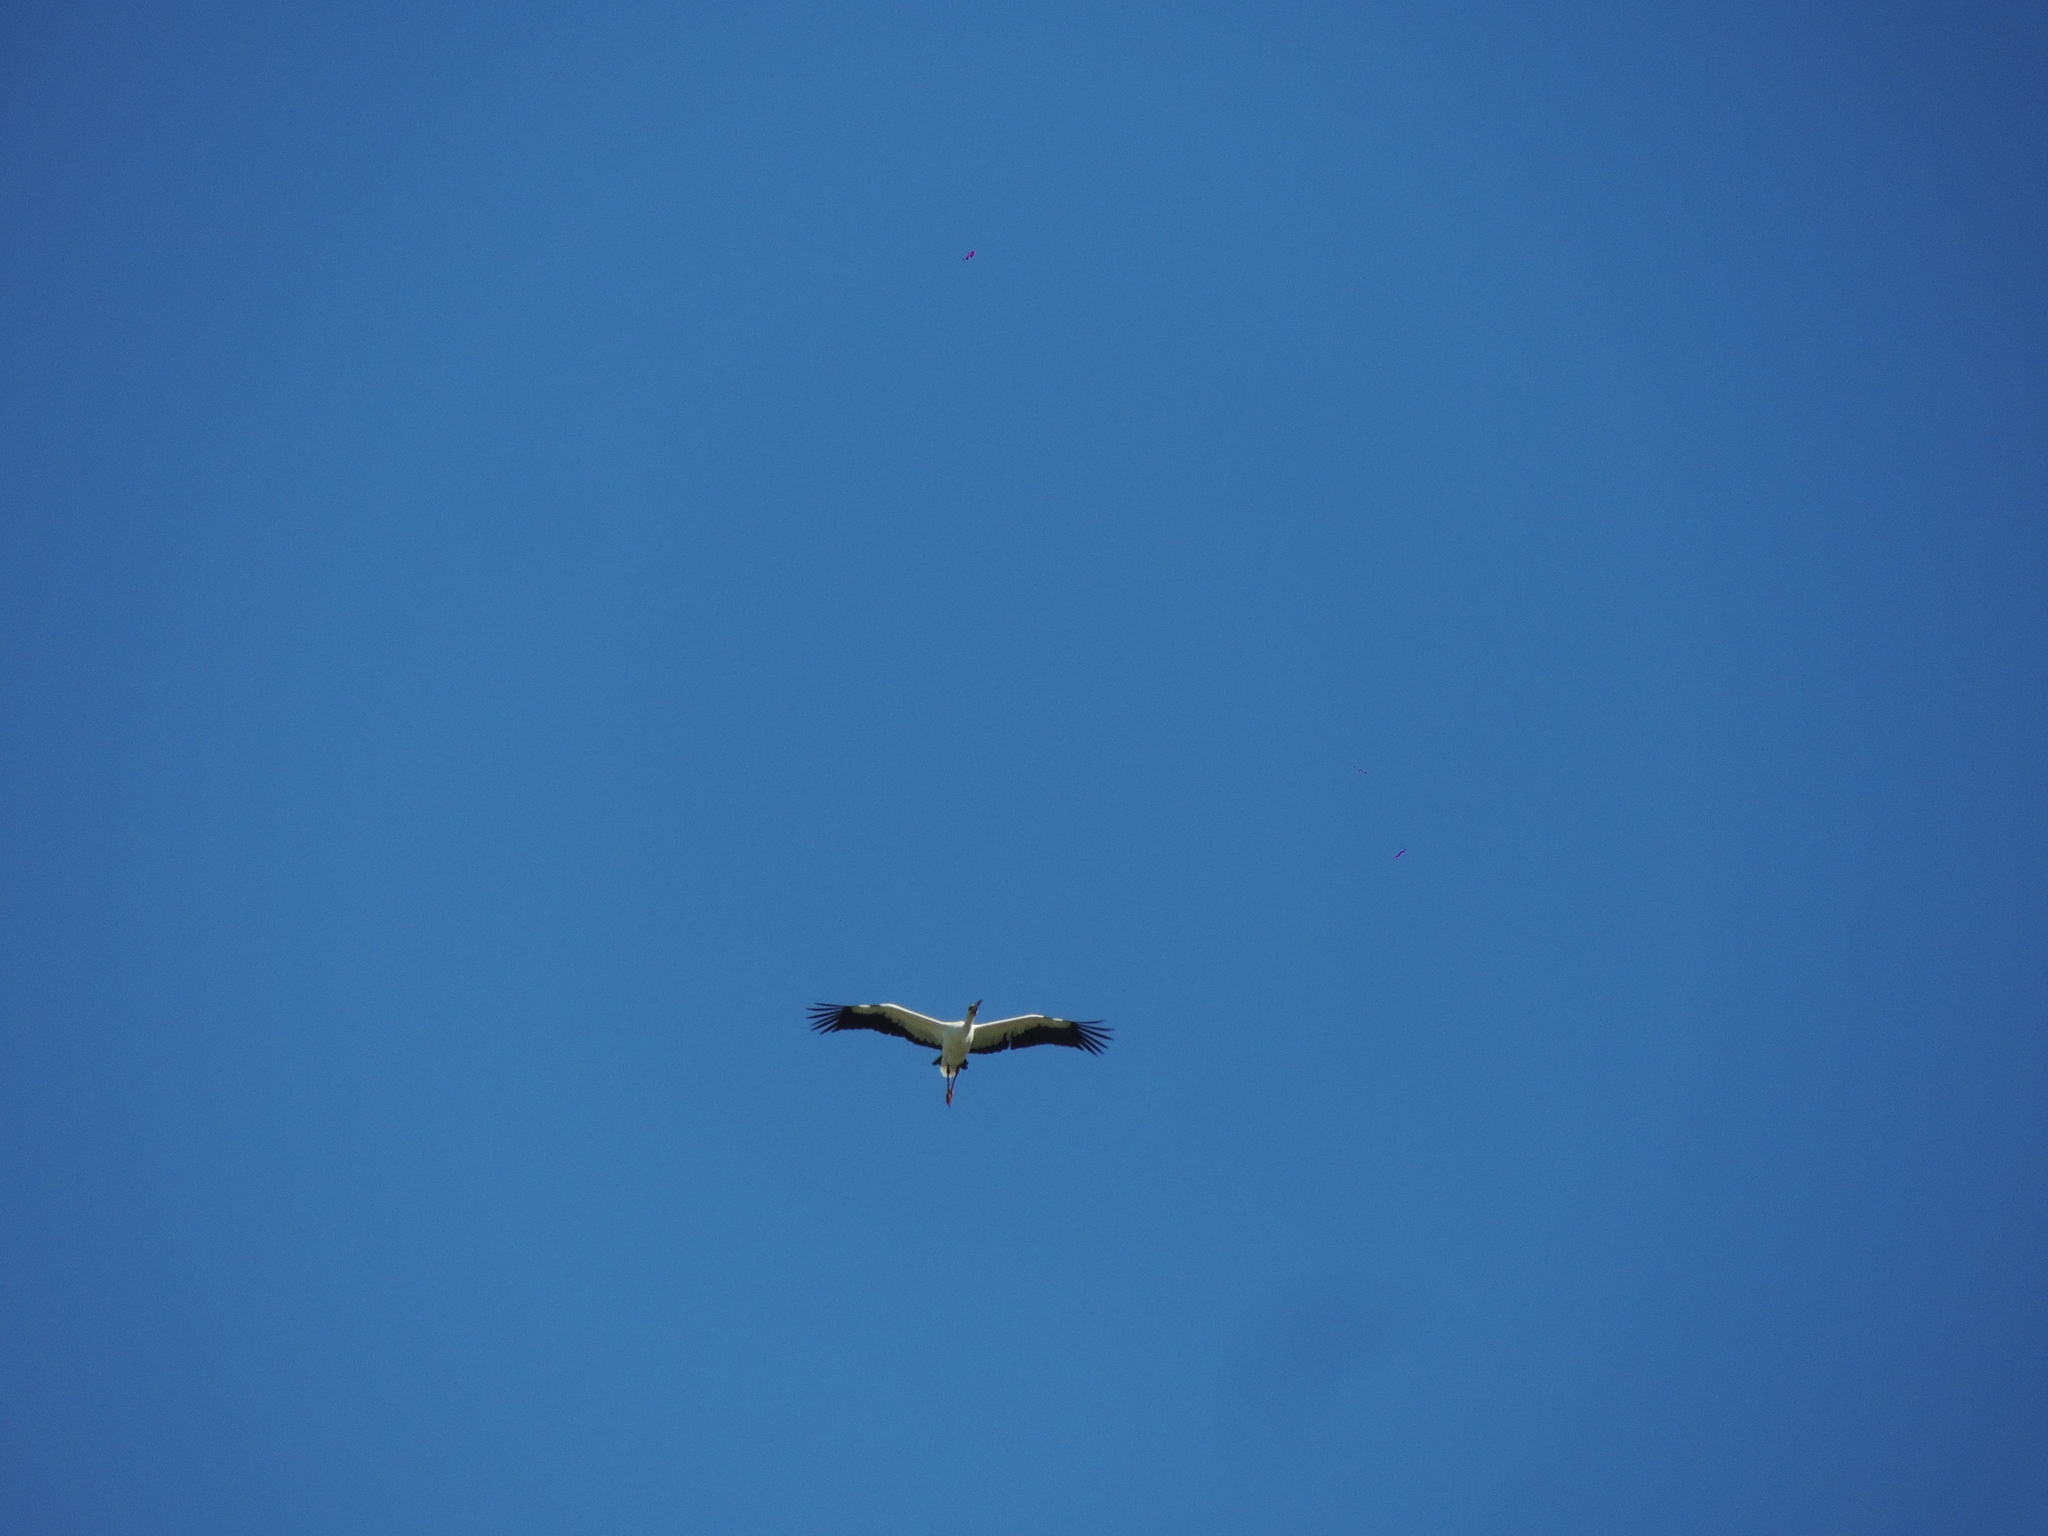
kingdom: Animalia
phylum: Chordata
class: Aves
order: Ciconiiformes
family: Ciconiidae
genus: Ciconia
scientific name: Ciconia maguari
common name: Maguari stork
